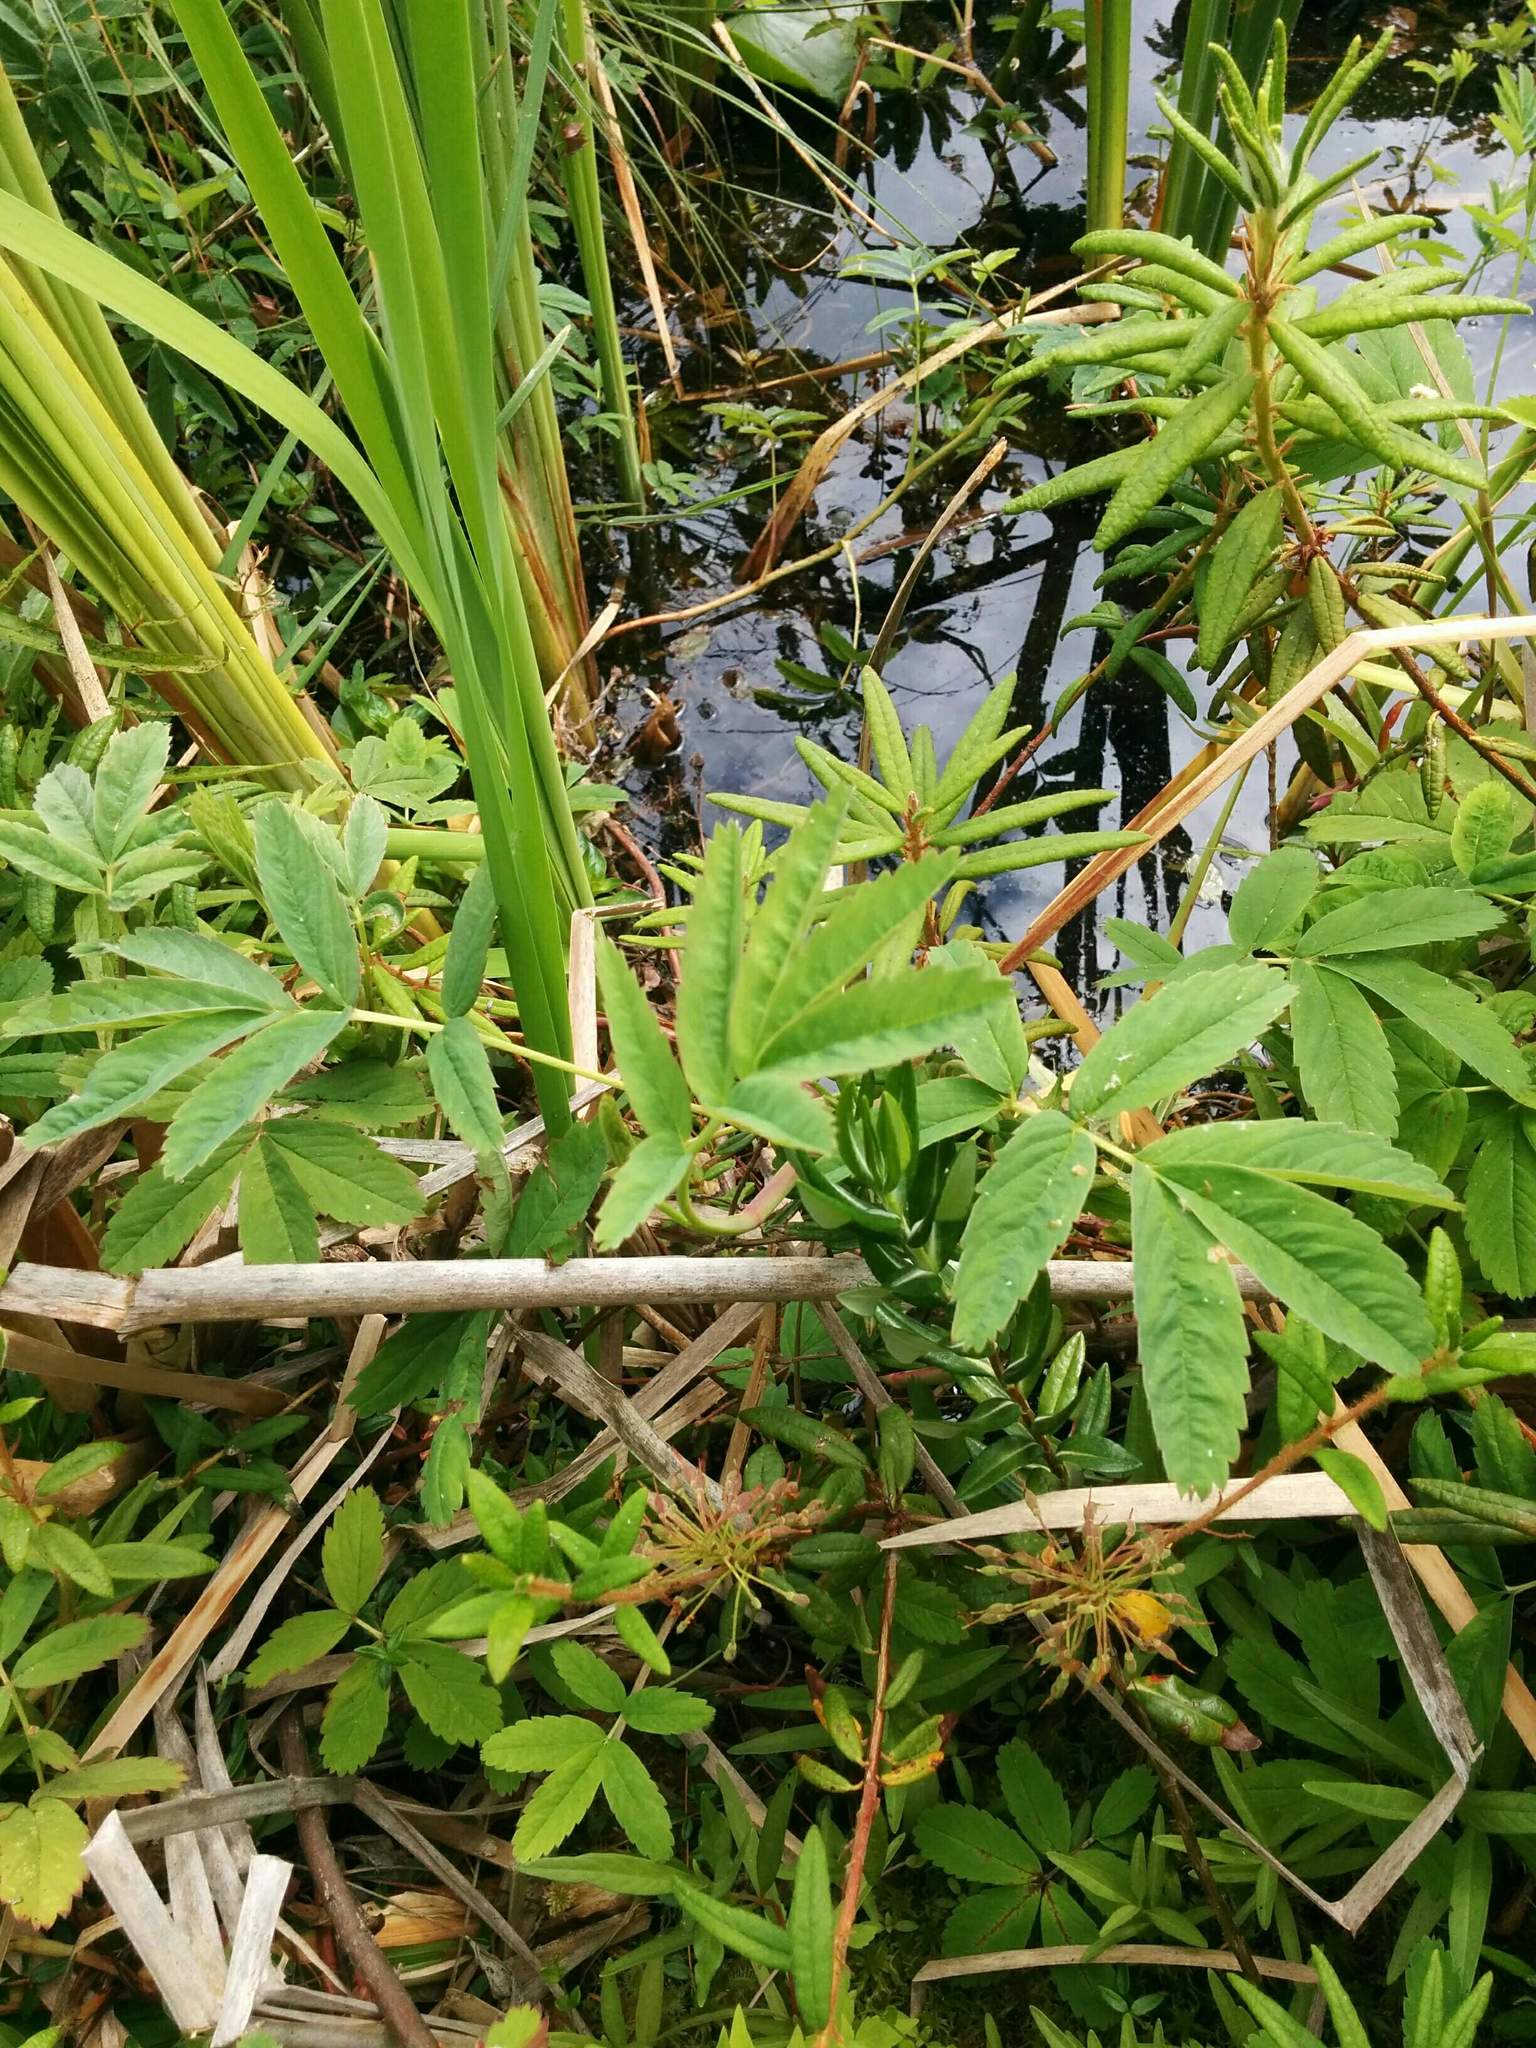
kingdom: Plantae
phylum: Tracheophyta
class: Magnoliopsida
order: Rosales
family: Rosaceae
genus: Comarum
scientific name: Comarum palustre
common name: Marsh cinquefoil
